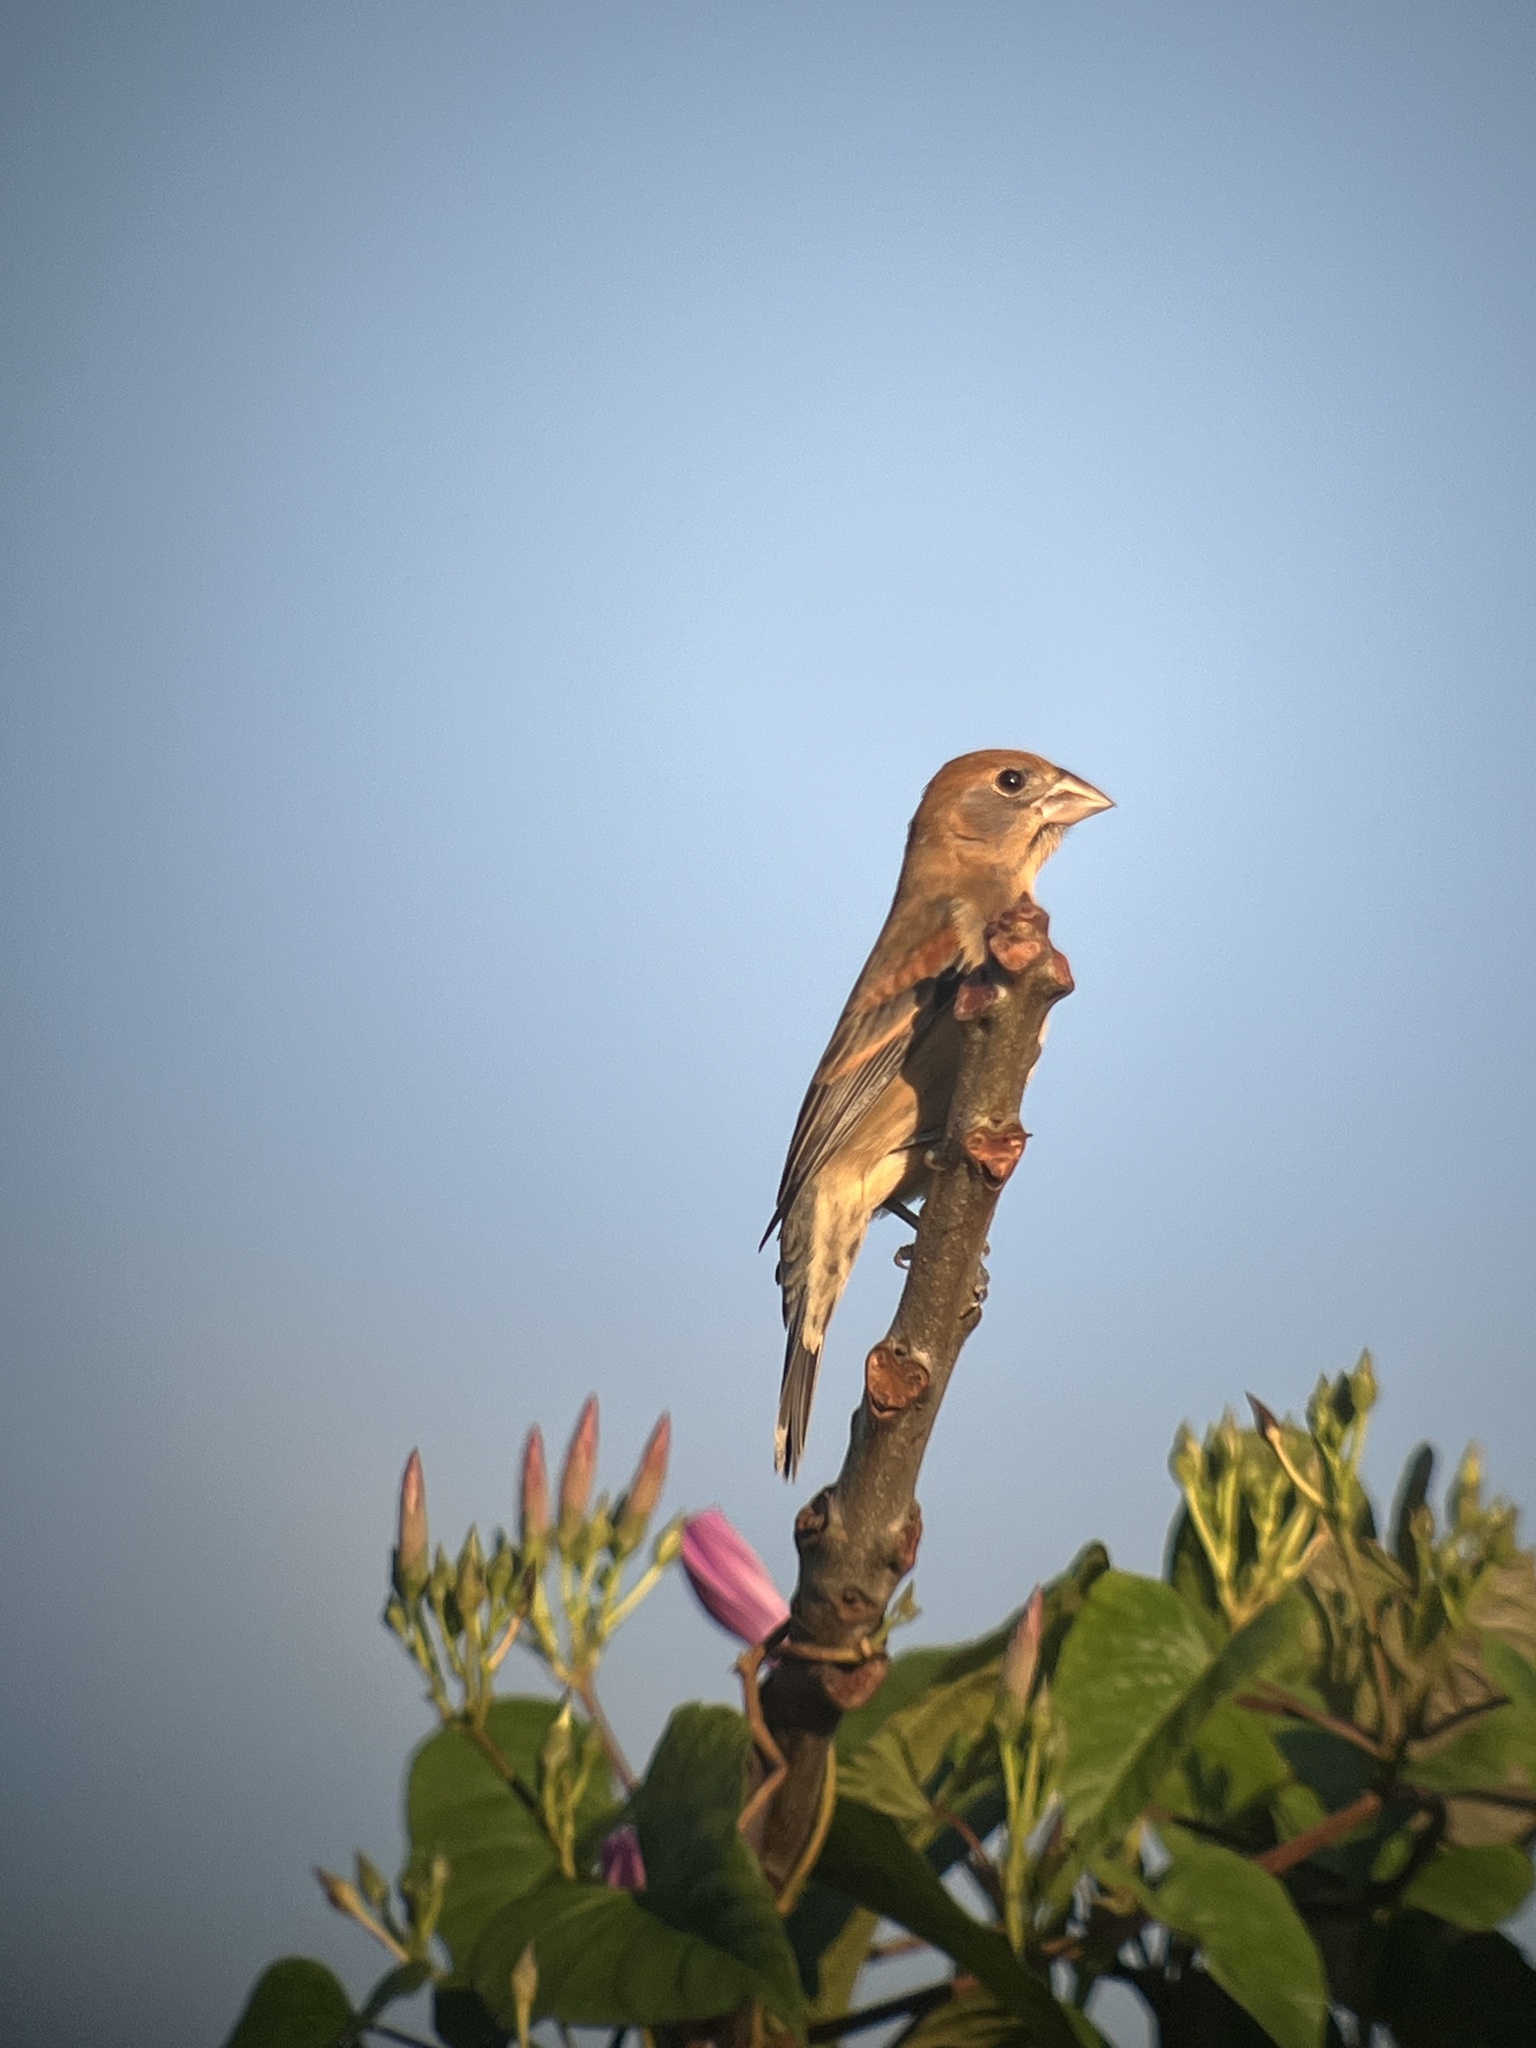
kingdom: Animalia
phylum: Chordata
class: Aves
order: Passeriformes
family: Cardinalidae
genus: Passerina
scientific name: Passerina caerulea
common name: Blue grosbeak
